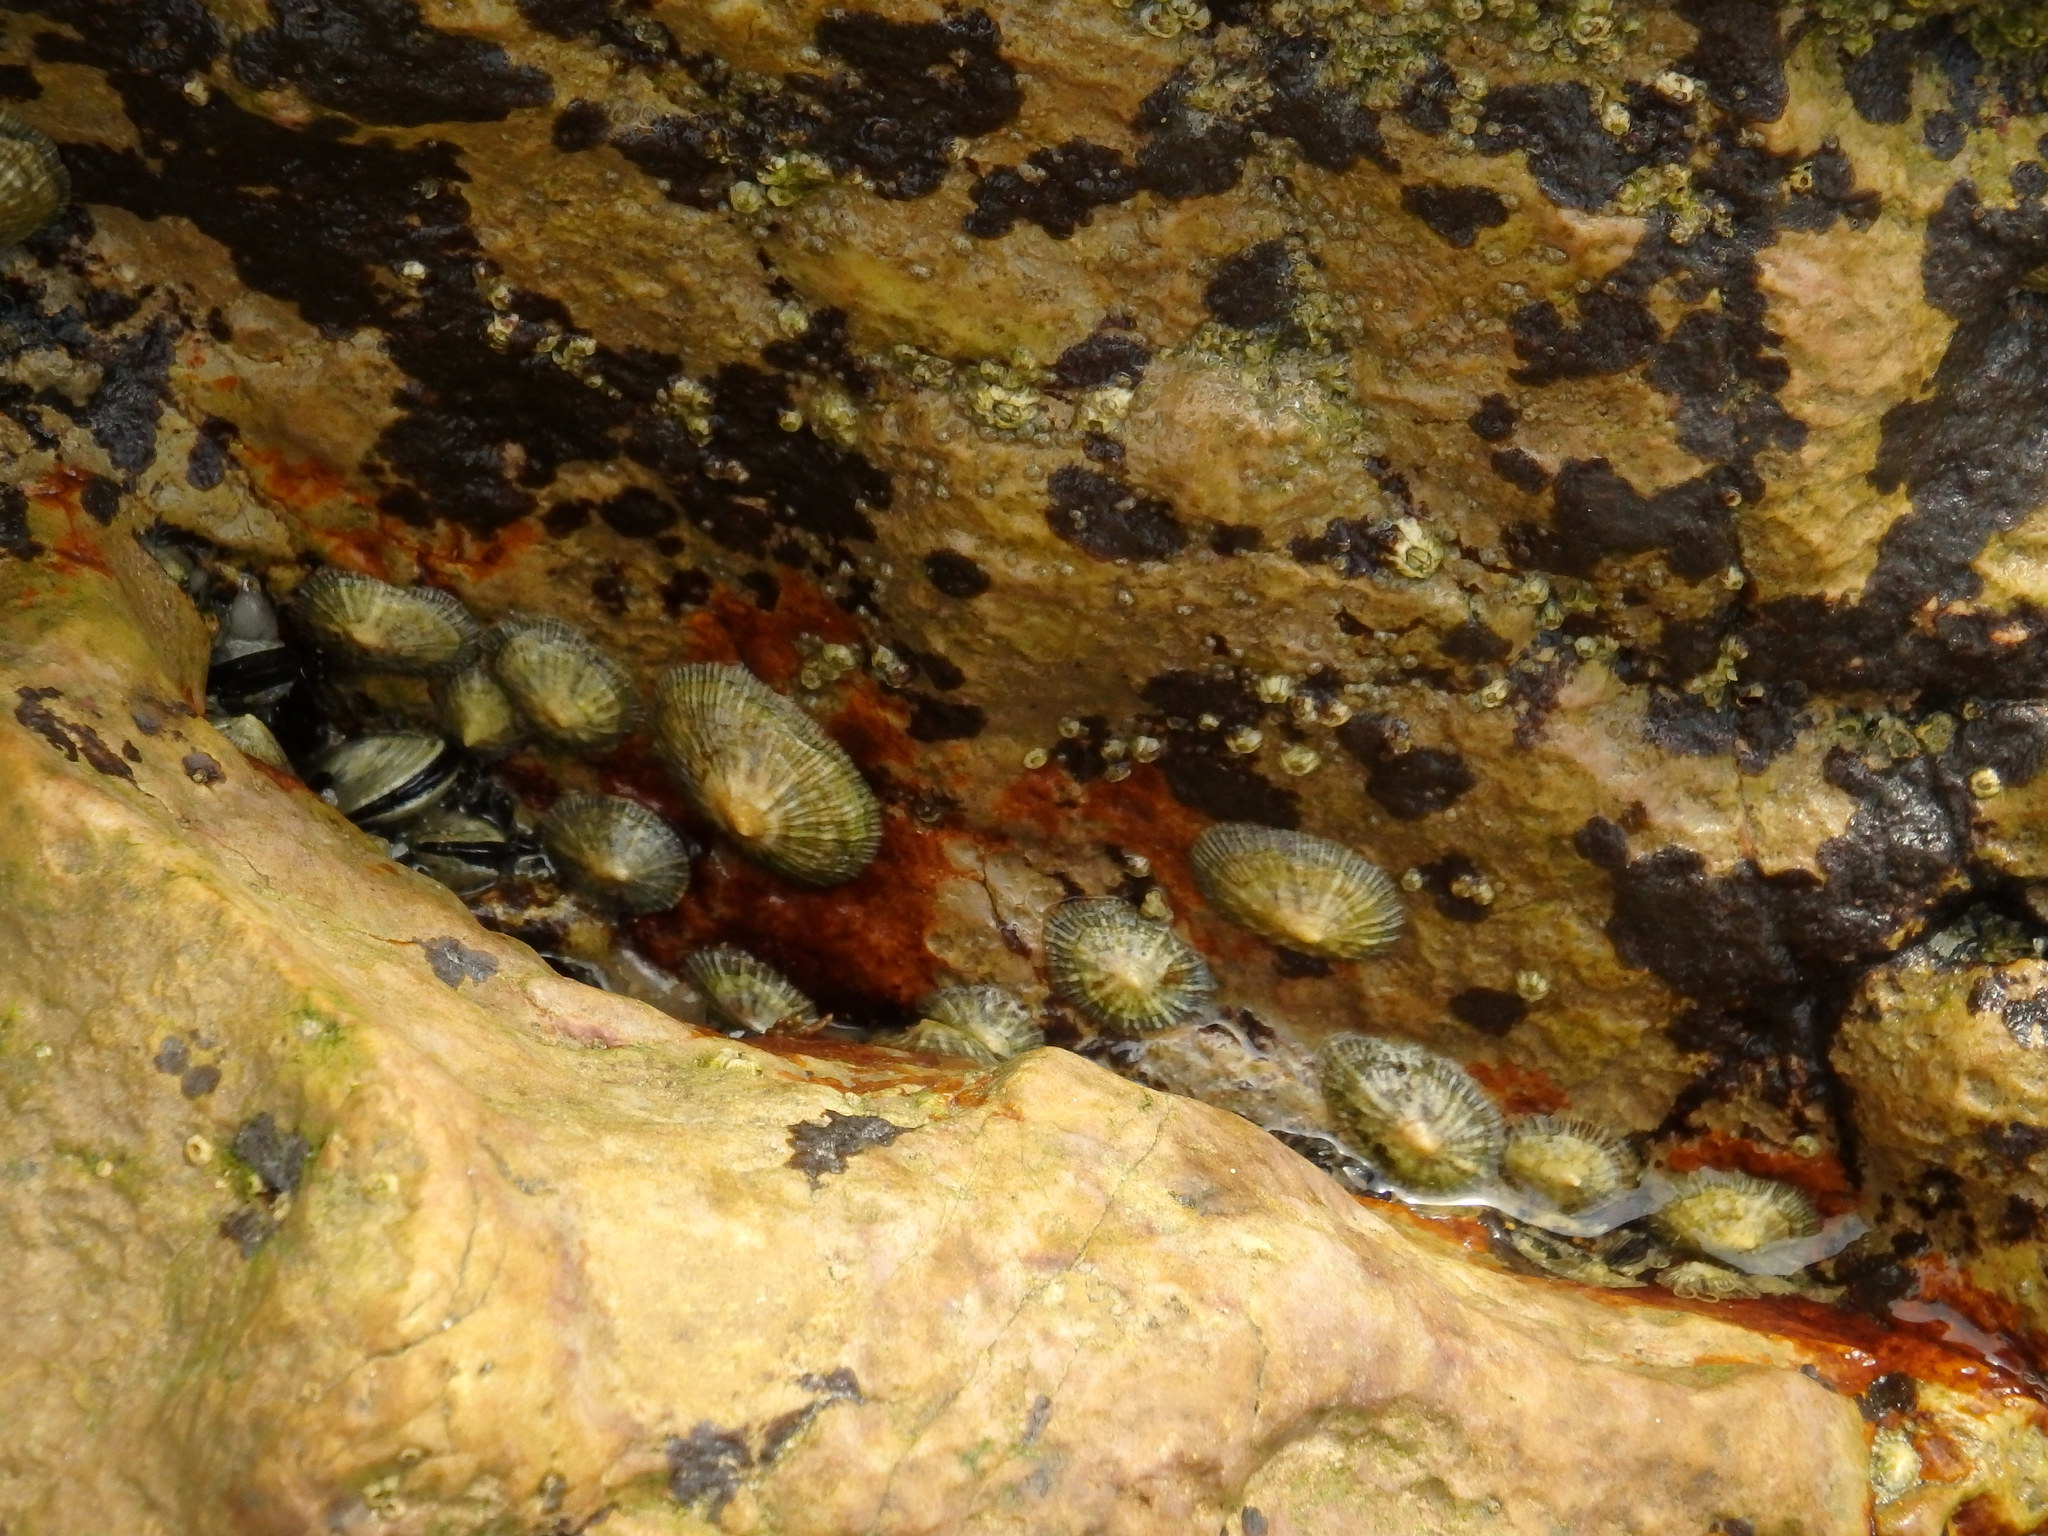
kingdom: Animalia
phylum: Mollusca
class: Gastropoda
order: Siphonariida
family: Siphonariidae
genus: Siphonaria
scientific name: Siphonaria pectinata
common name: Striped false limpet
